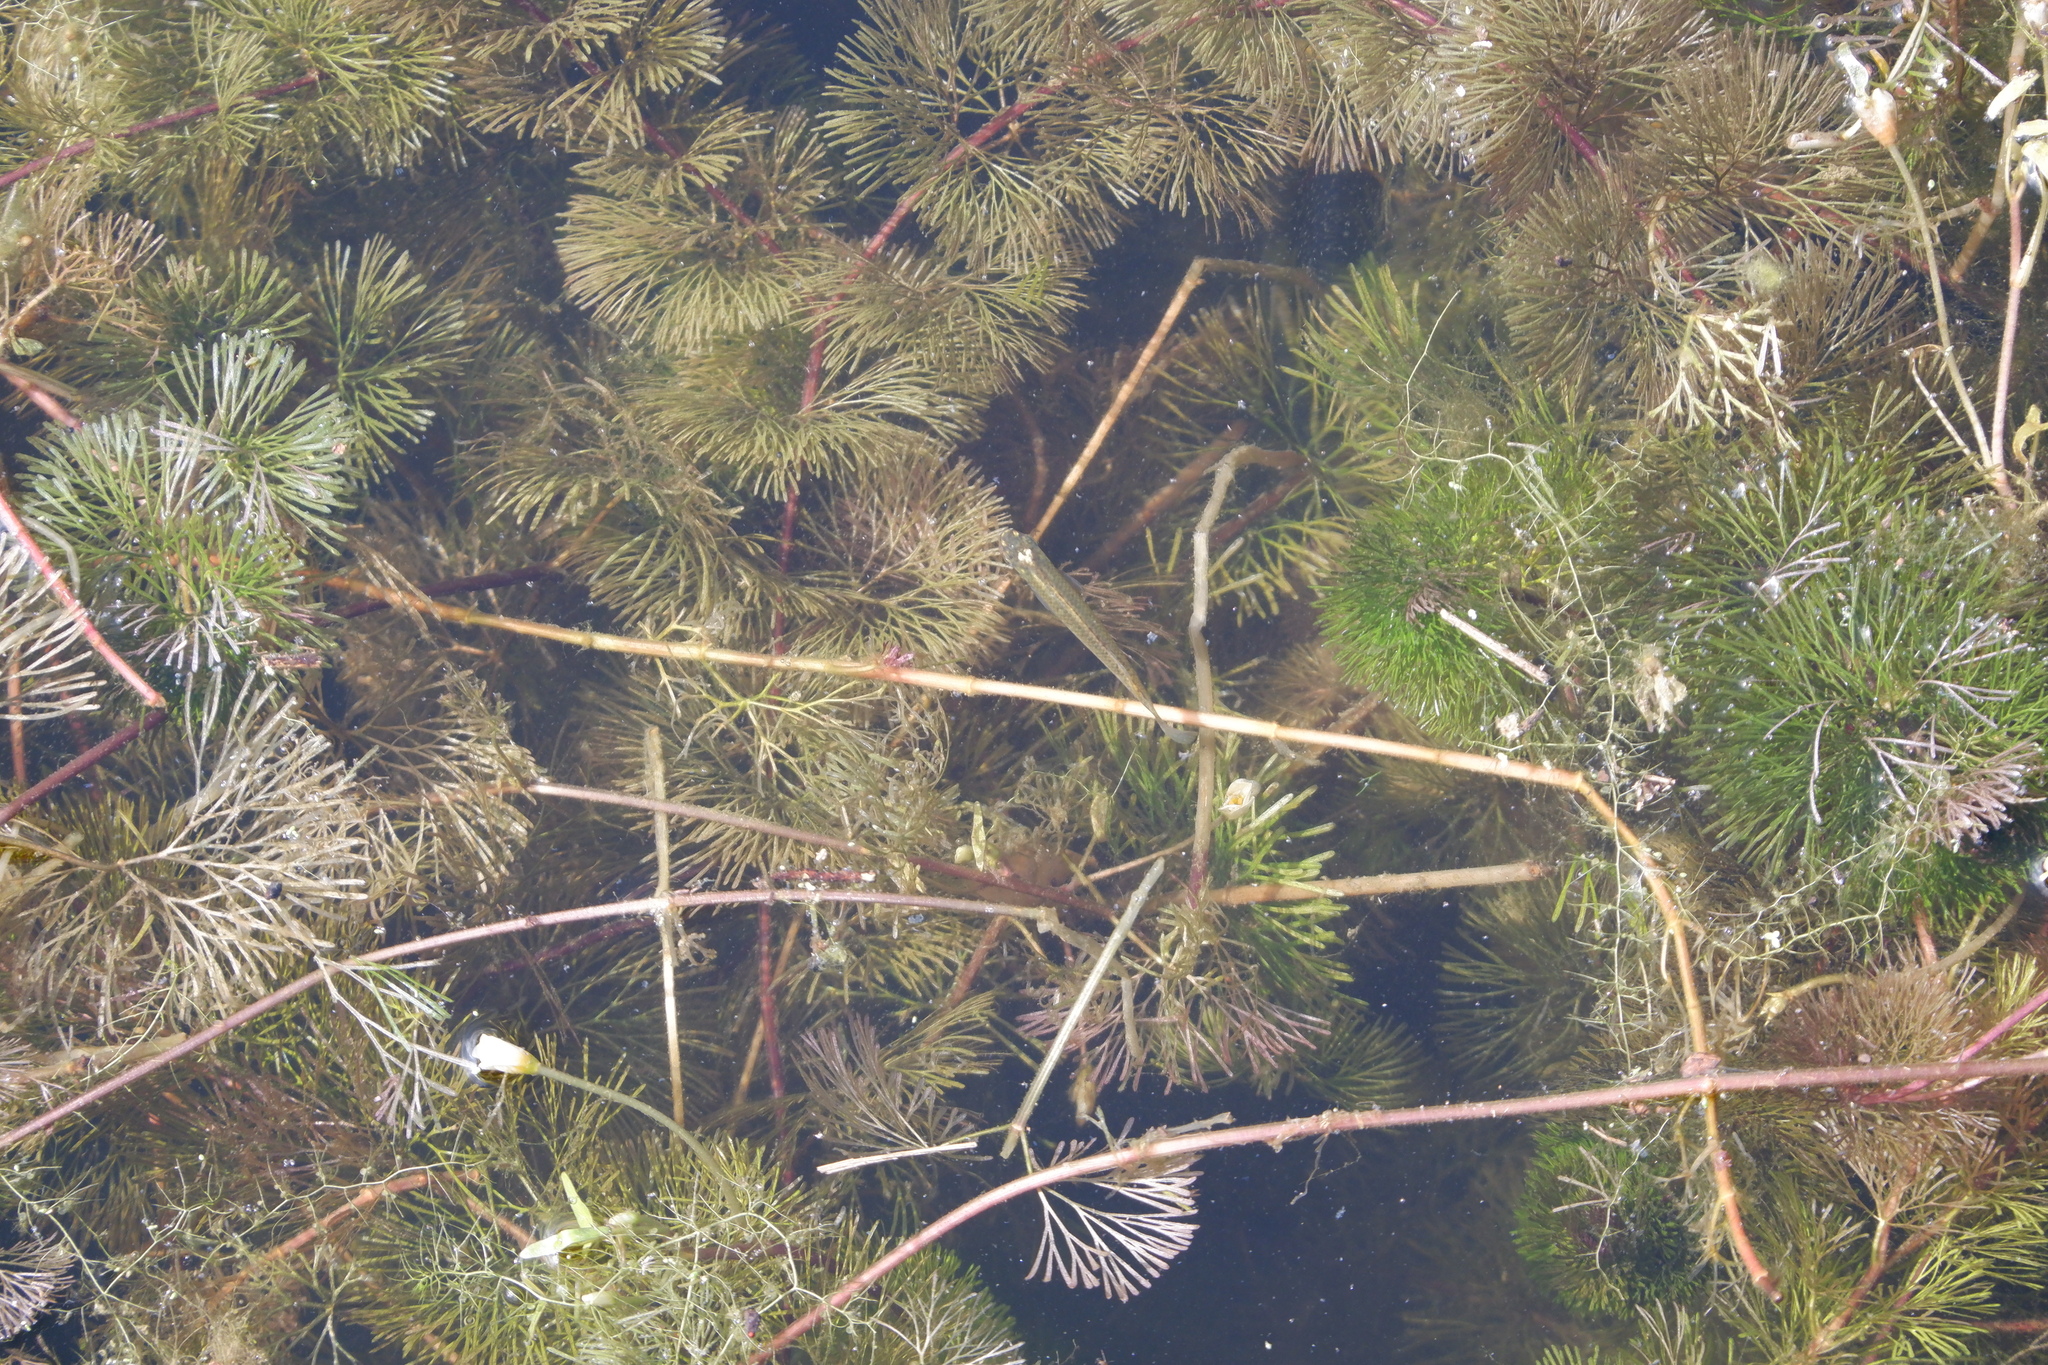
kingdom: Plantae
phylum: Tracheophyta
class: Magnoliopsida
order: Nymphaeales
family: Cabombaceae
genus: Cabomba
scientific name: Cabomba caroliniana
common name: Fanwort
